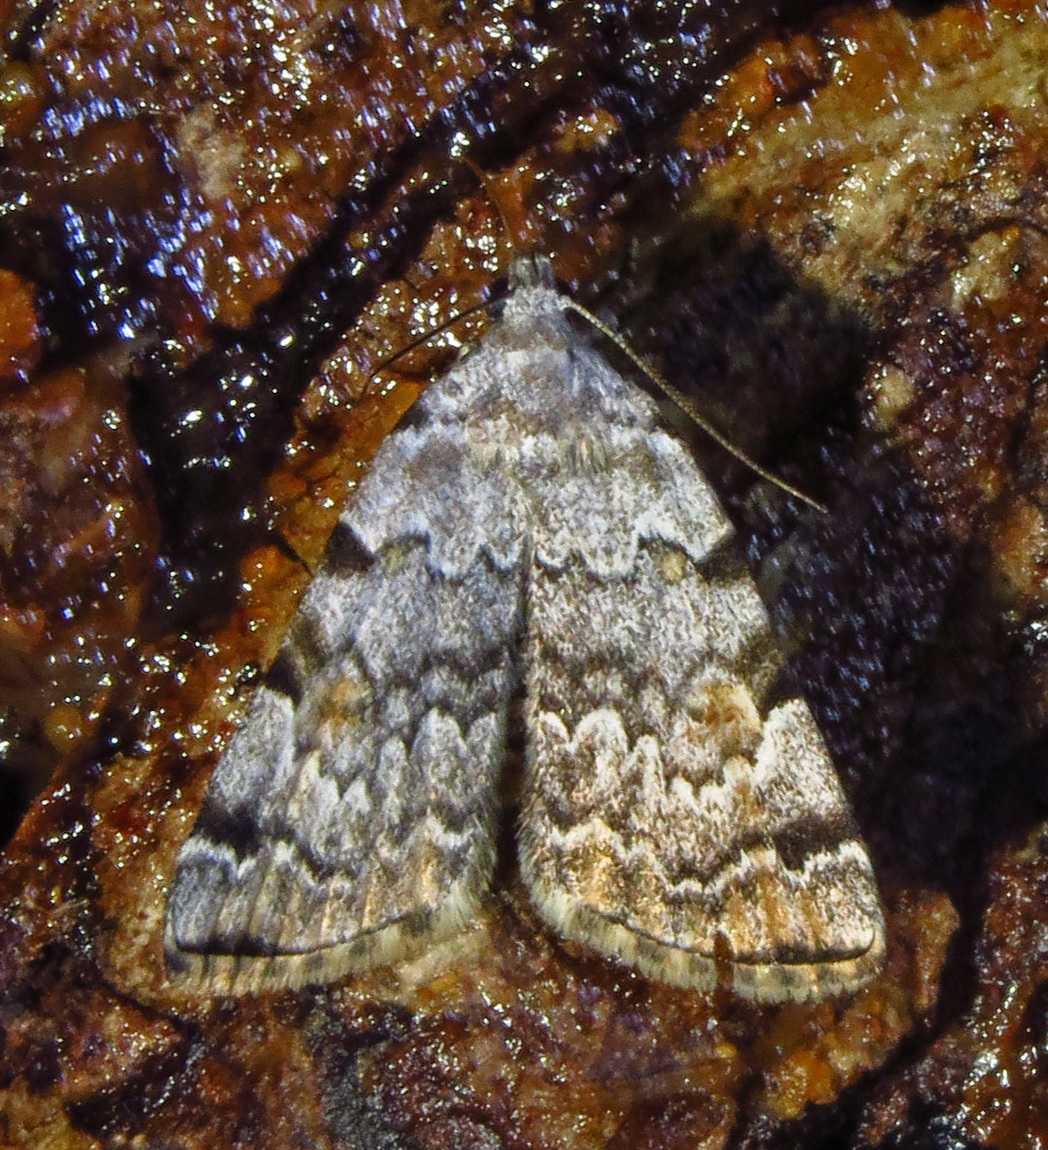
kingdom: Animalia
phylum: Arthropoda
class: Insecta
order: Lepidoptera
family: Erebidae
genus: Idia
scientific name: Idia americalis
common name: American idia moth
